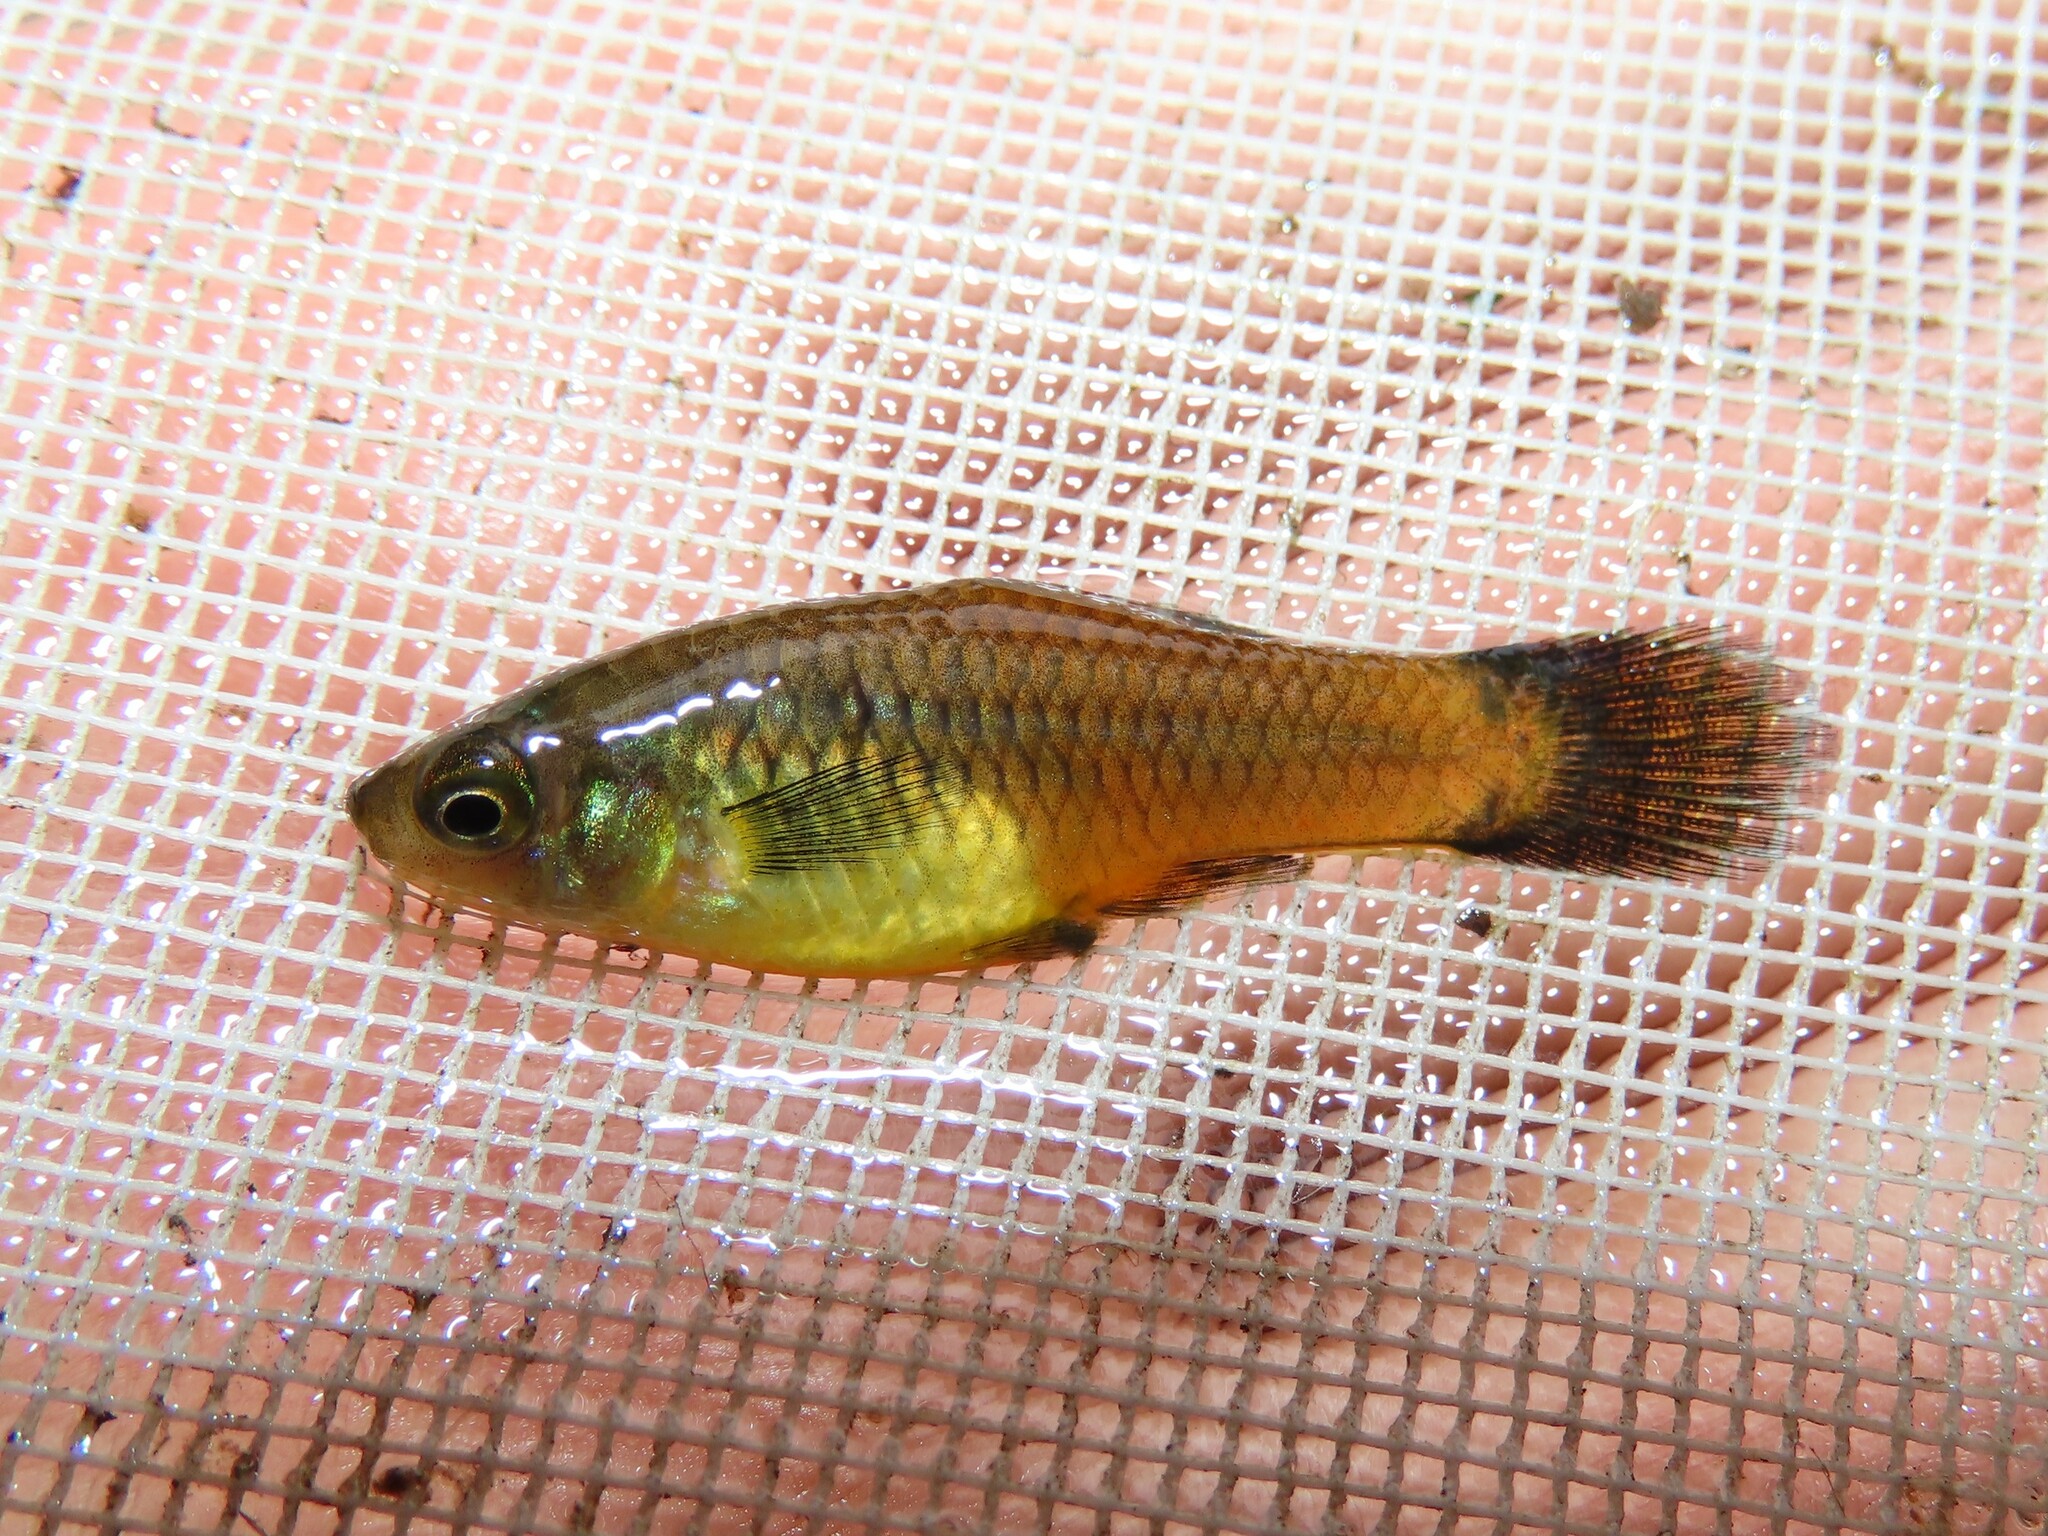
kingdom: Animalia
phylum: Chordata
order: Cyprinodontiformes
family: Poeciliidae
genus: Xiphophorus
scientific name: Xiphophorus variatus
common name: Variable platyfish
